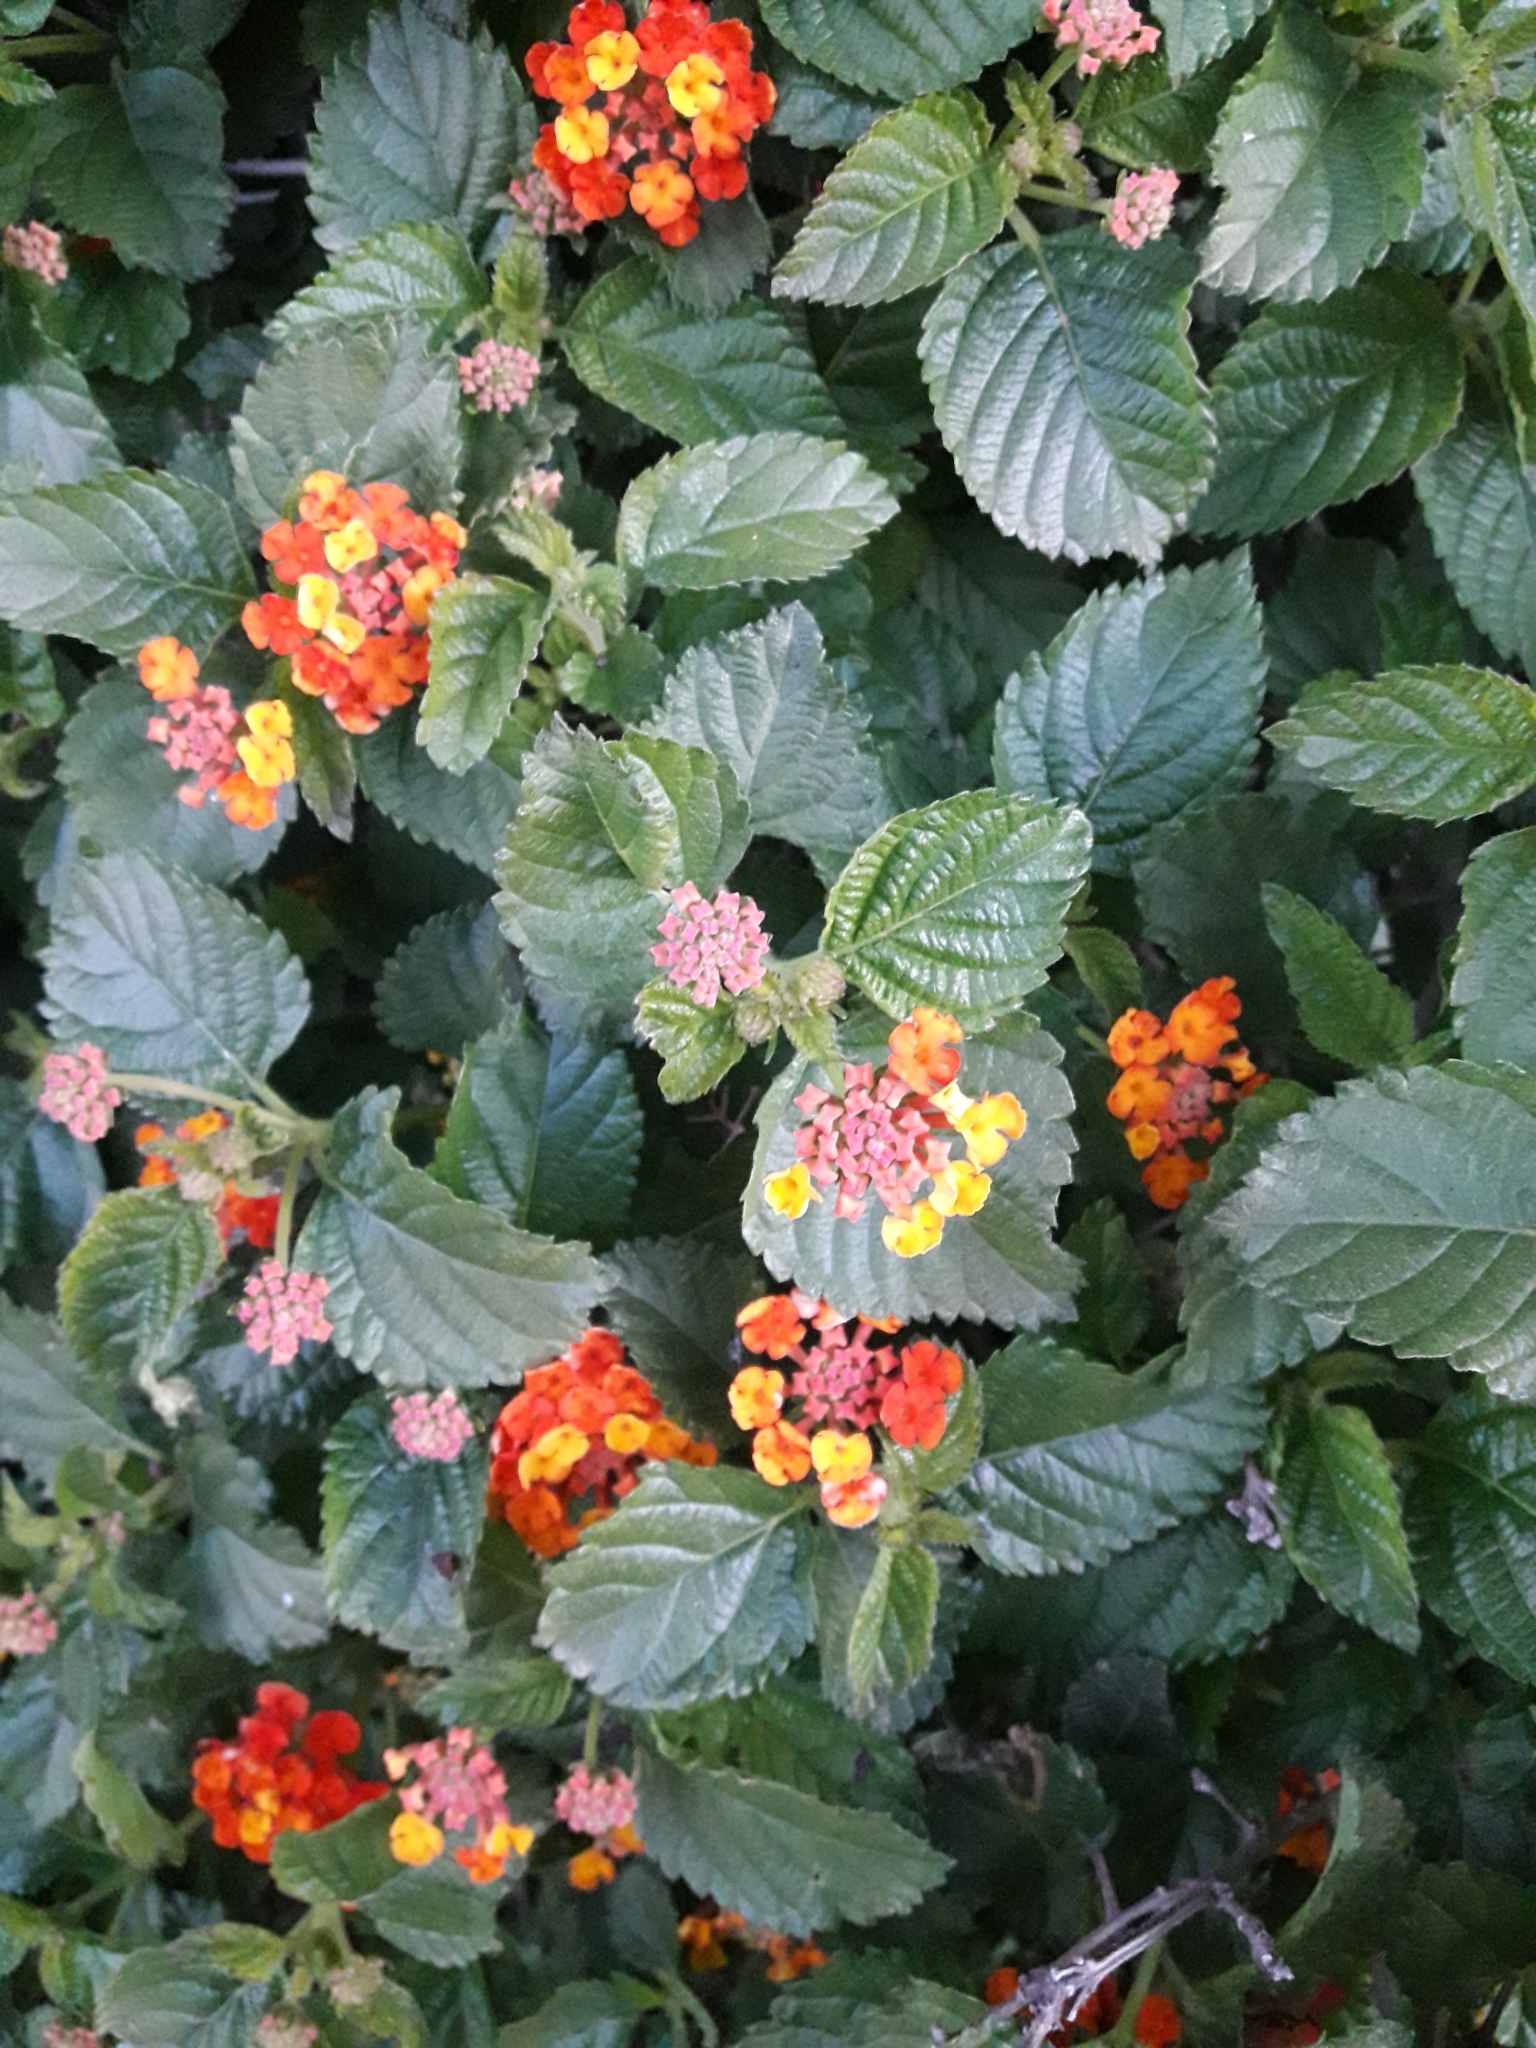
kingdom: Plantae
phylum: Tracheophyta
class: Magnoliopsida
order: Lamiales
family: Verbenaceae
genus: Lantana
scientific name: Lantana camara
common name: Lantana
